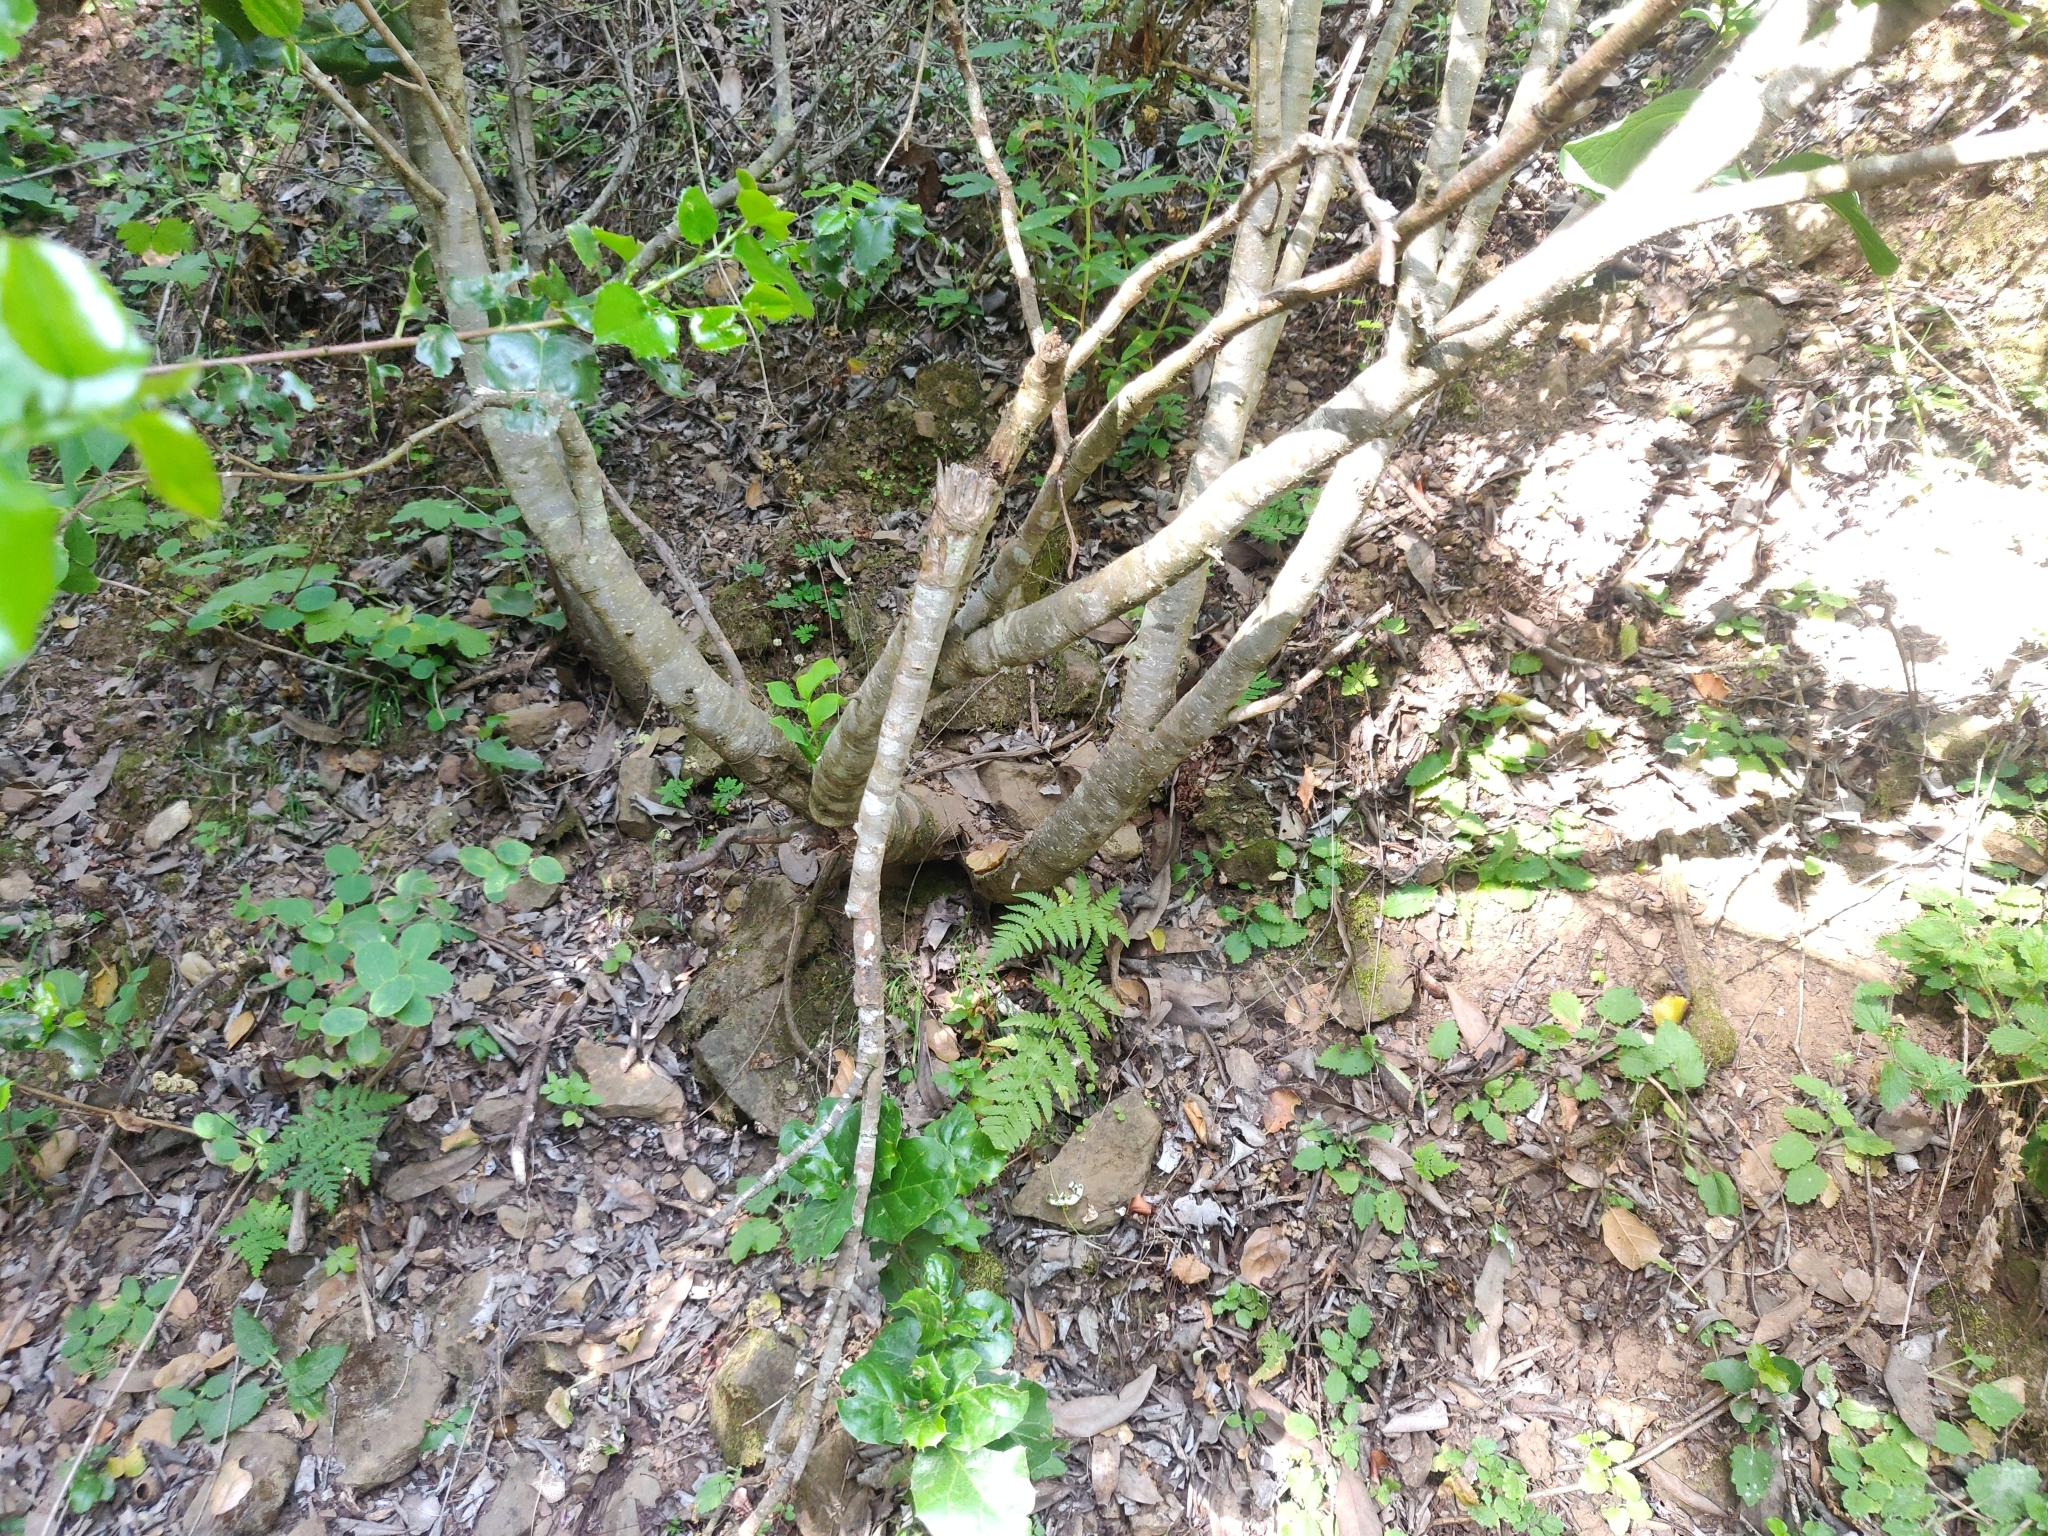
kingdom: Plantae
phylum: Tracheophyta
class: Magnoliopsida
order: Malvales
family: Thymelaeaceae
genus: Dirca
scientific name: Dirca occidentalis
